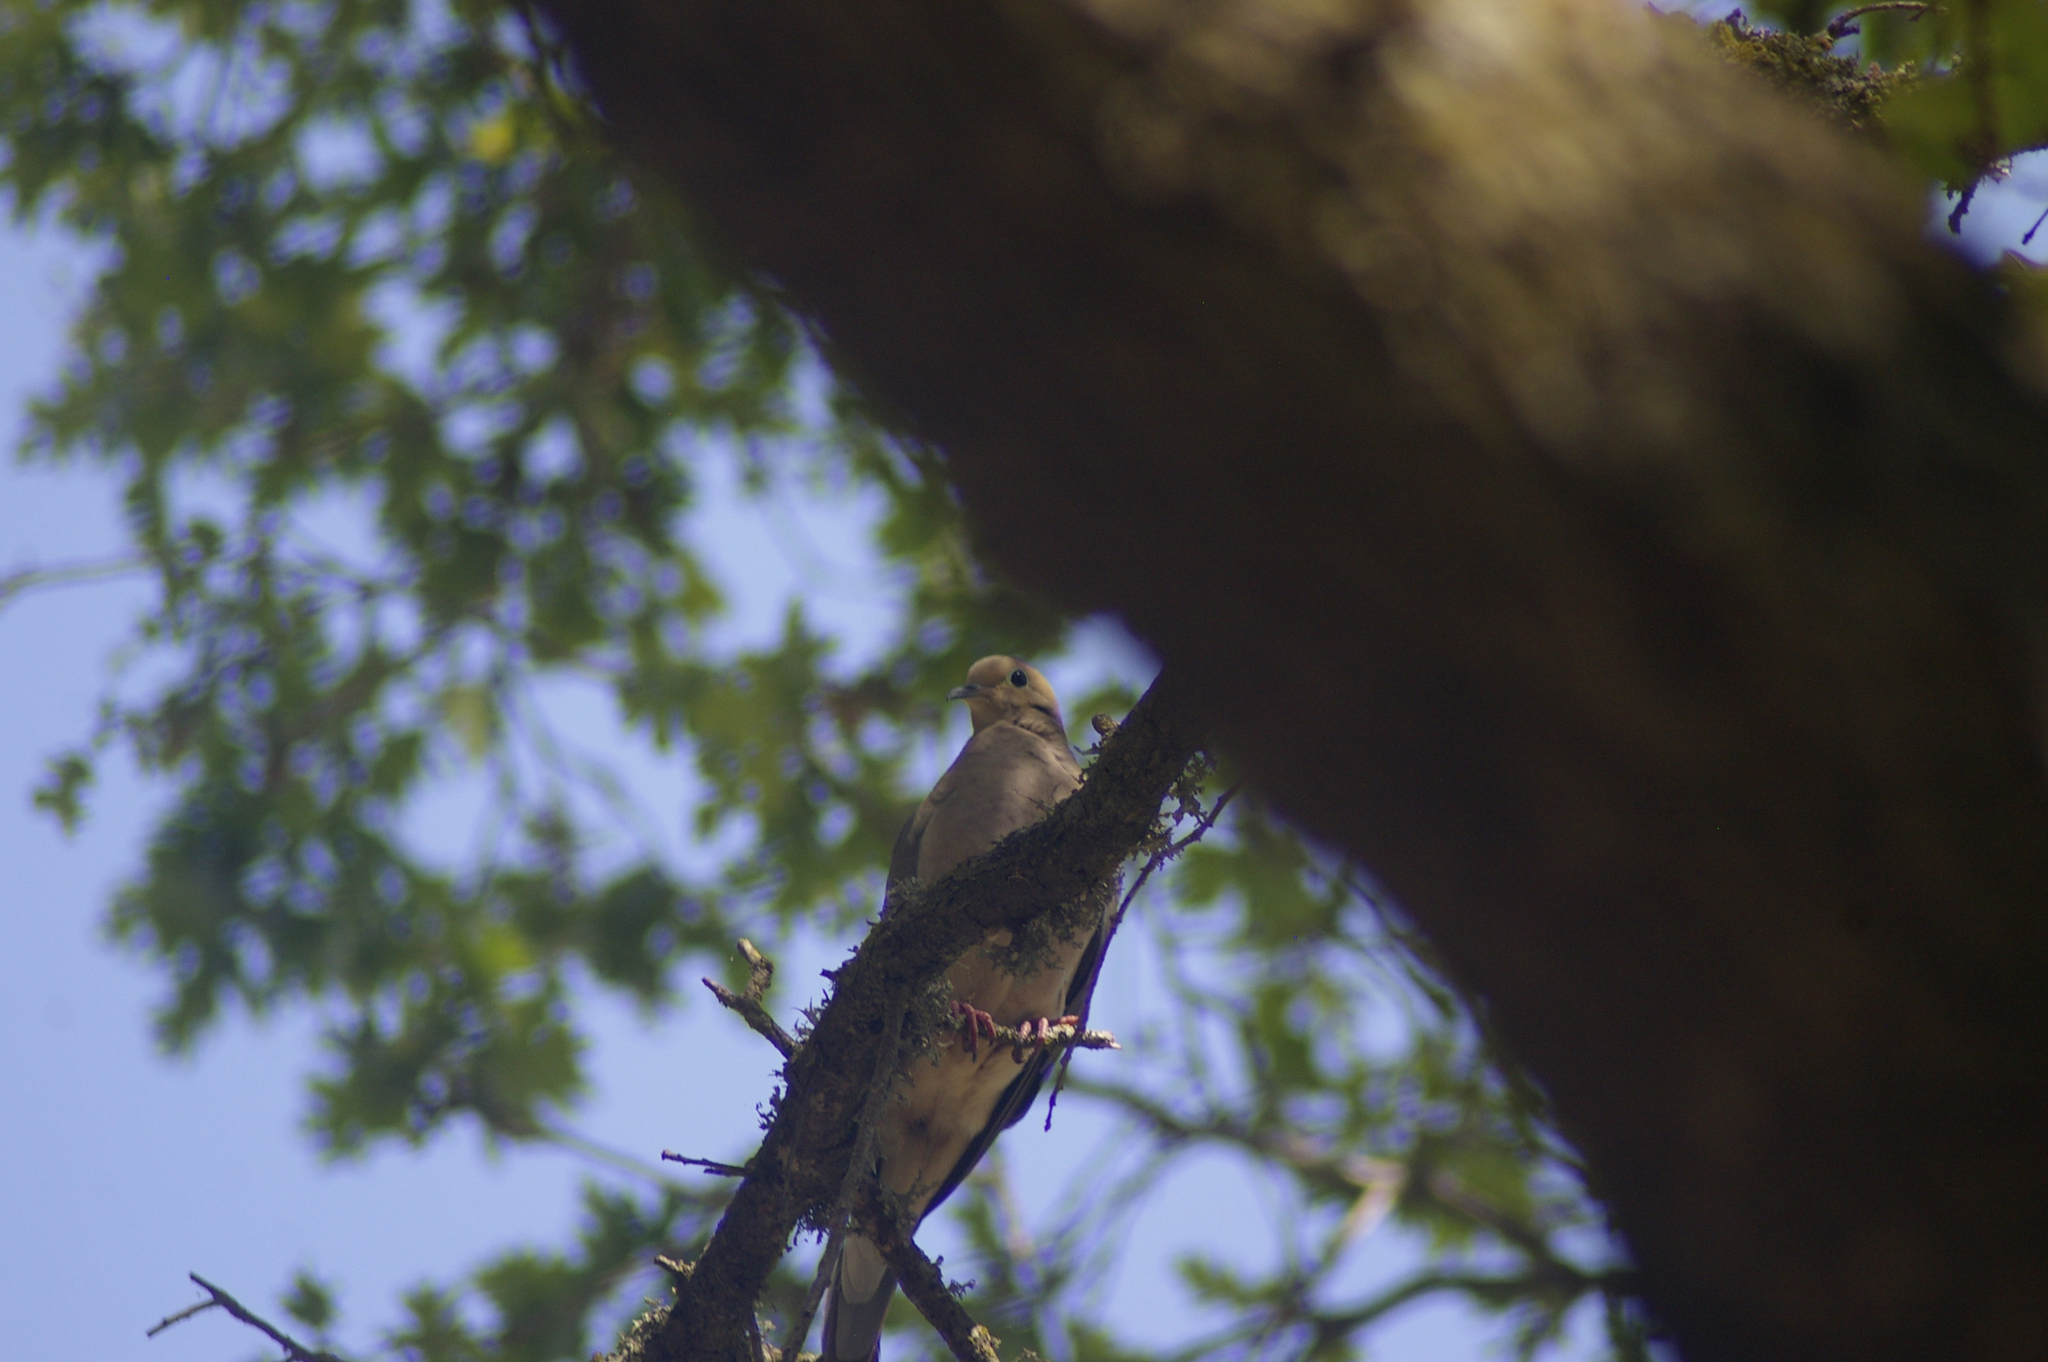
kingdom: Animalia
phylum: Chordata
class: Aves
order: Columbiformes
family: Columbidae
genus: Zenaida
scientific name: Zenaida macroura
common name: Mourning dove
